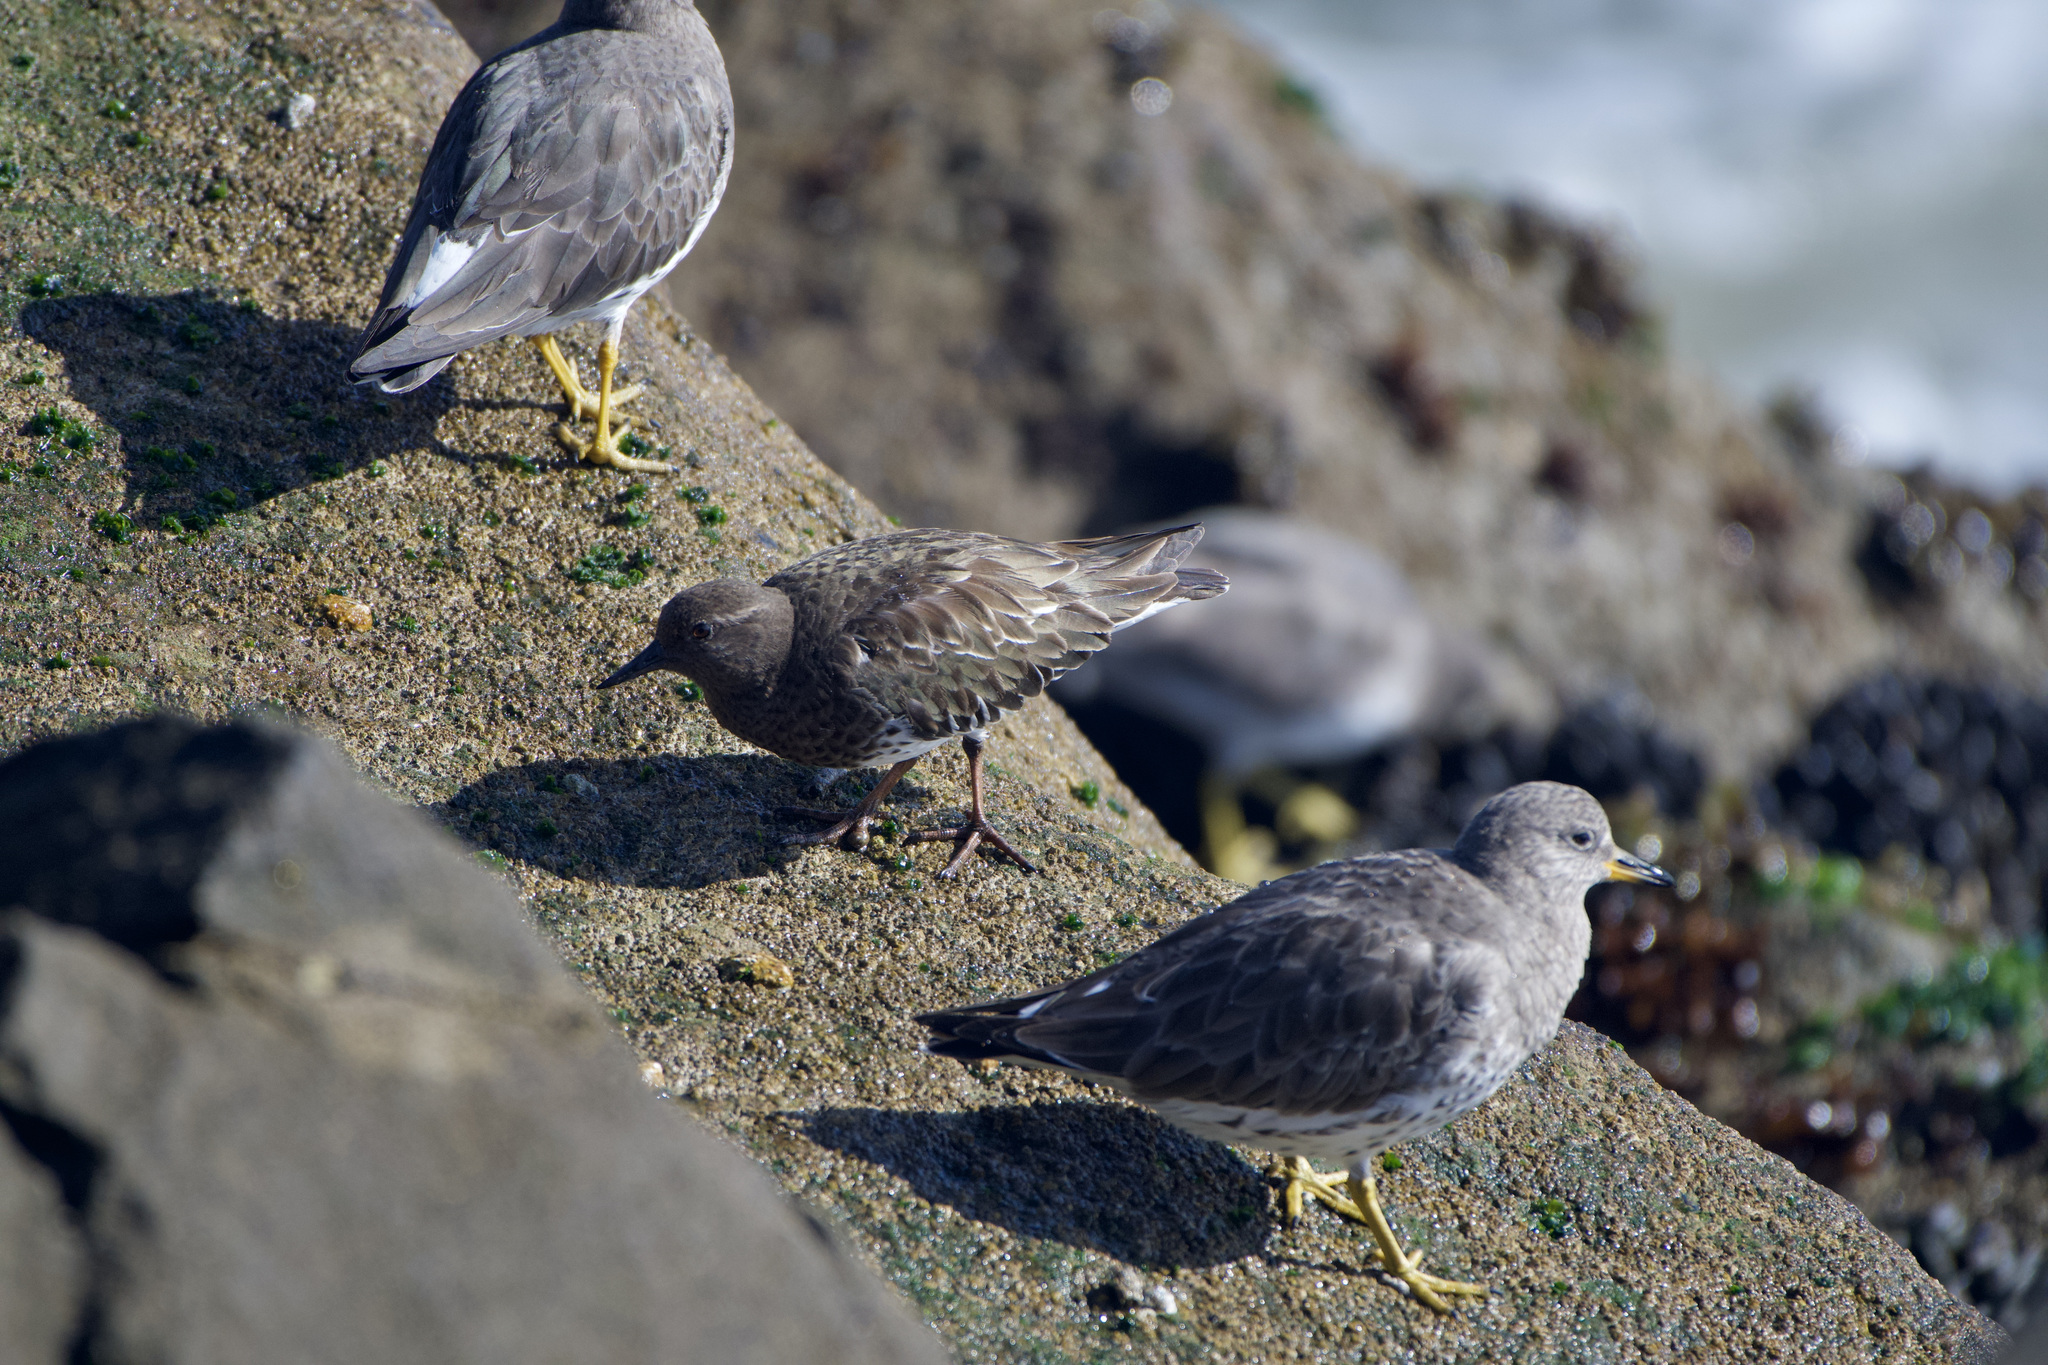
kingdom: Animalia
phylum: Chordata
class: Aves
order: Charadriiformes
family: Scolopacidae
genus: Arenaria
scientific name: Arenaria melanocephala
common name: Black turnstone
